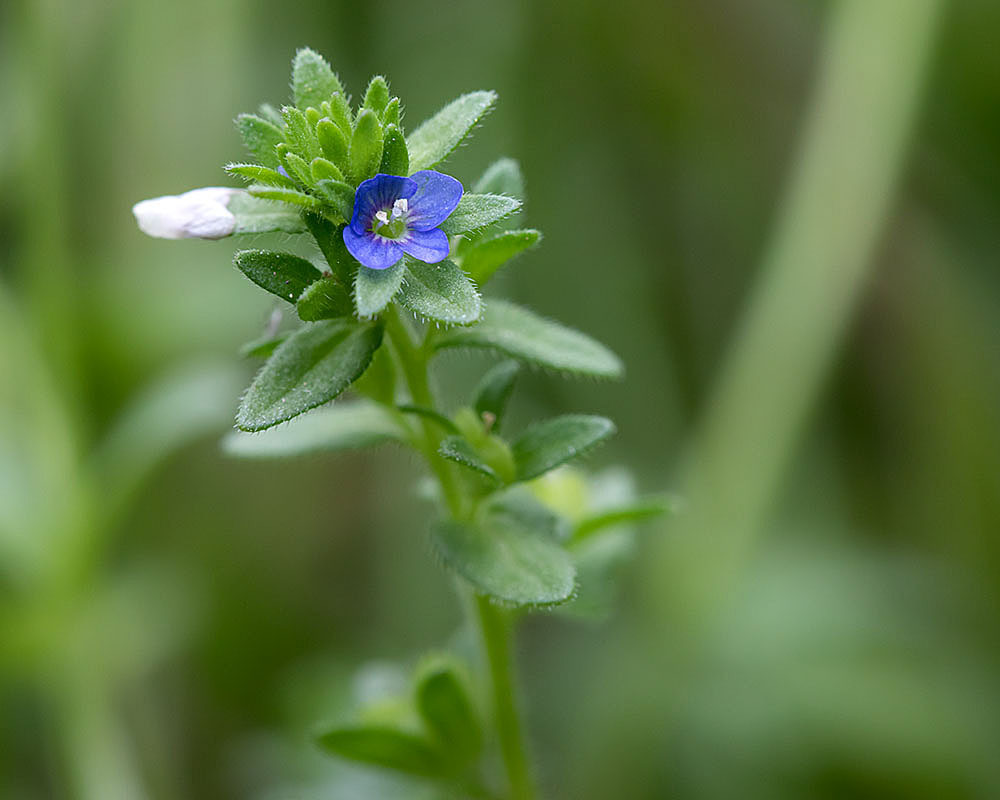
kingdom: Plantae
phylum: Tracheophyta
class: Magnoliopsida
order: Lamiales
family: Plantaginaceae
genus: Veronica
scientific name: Veronica arvensis
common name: Corn speedwell
